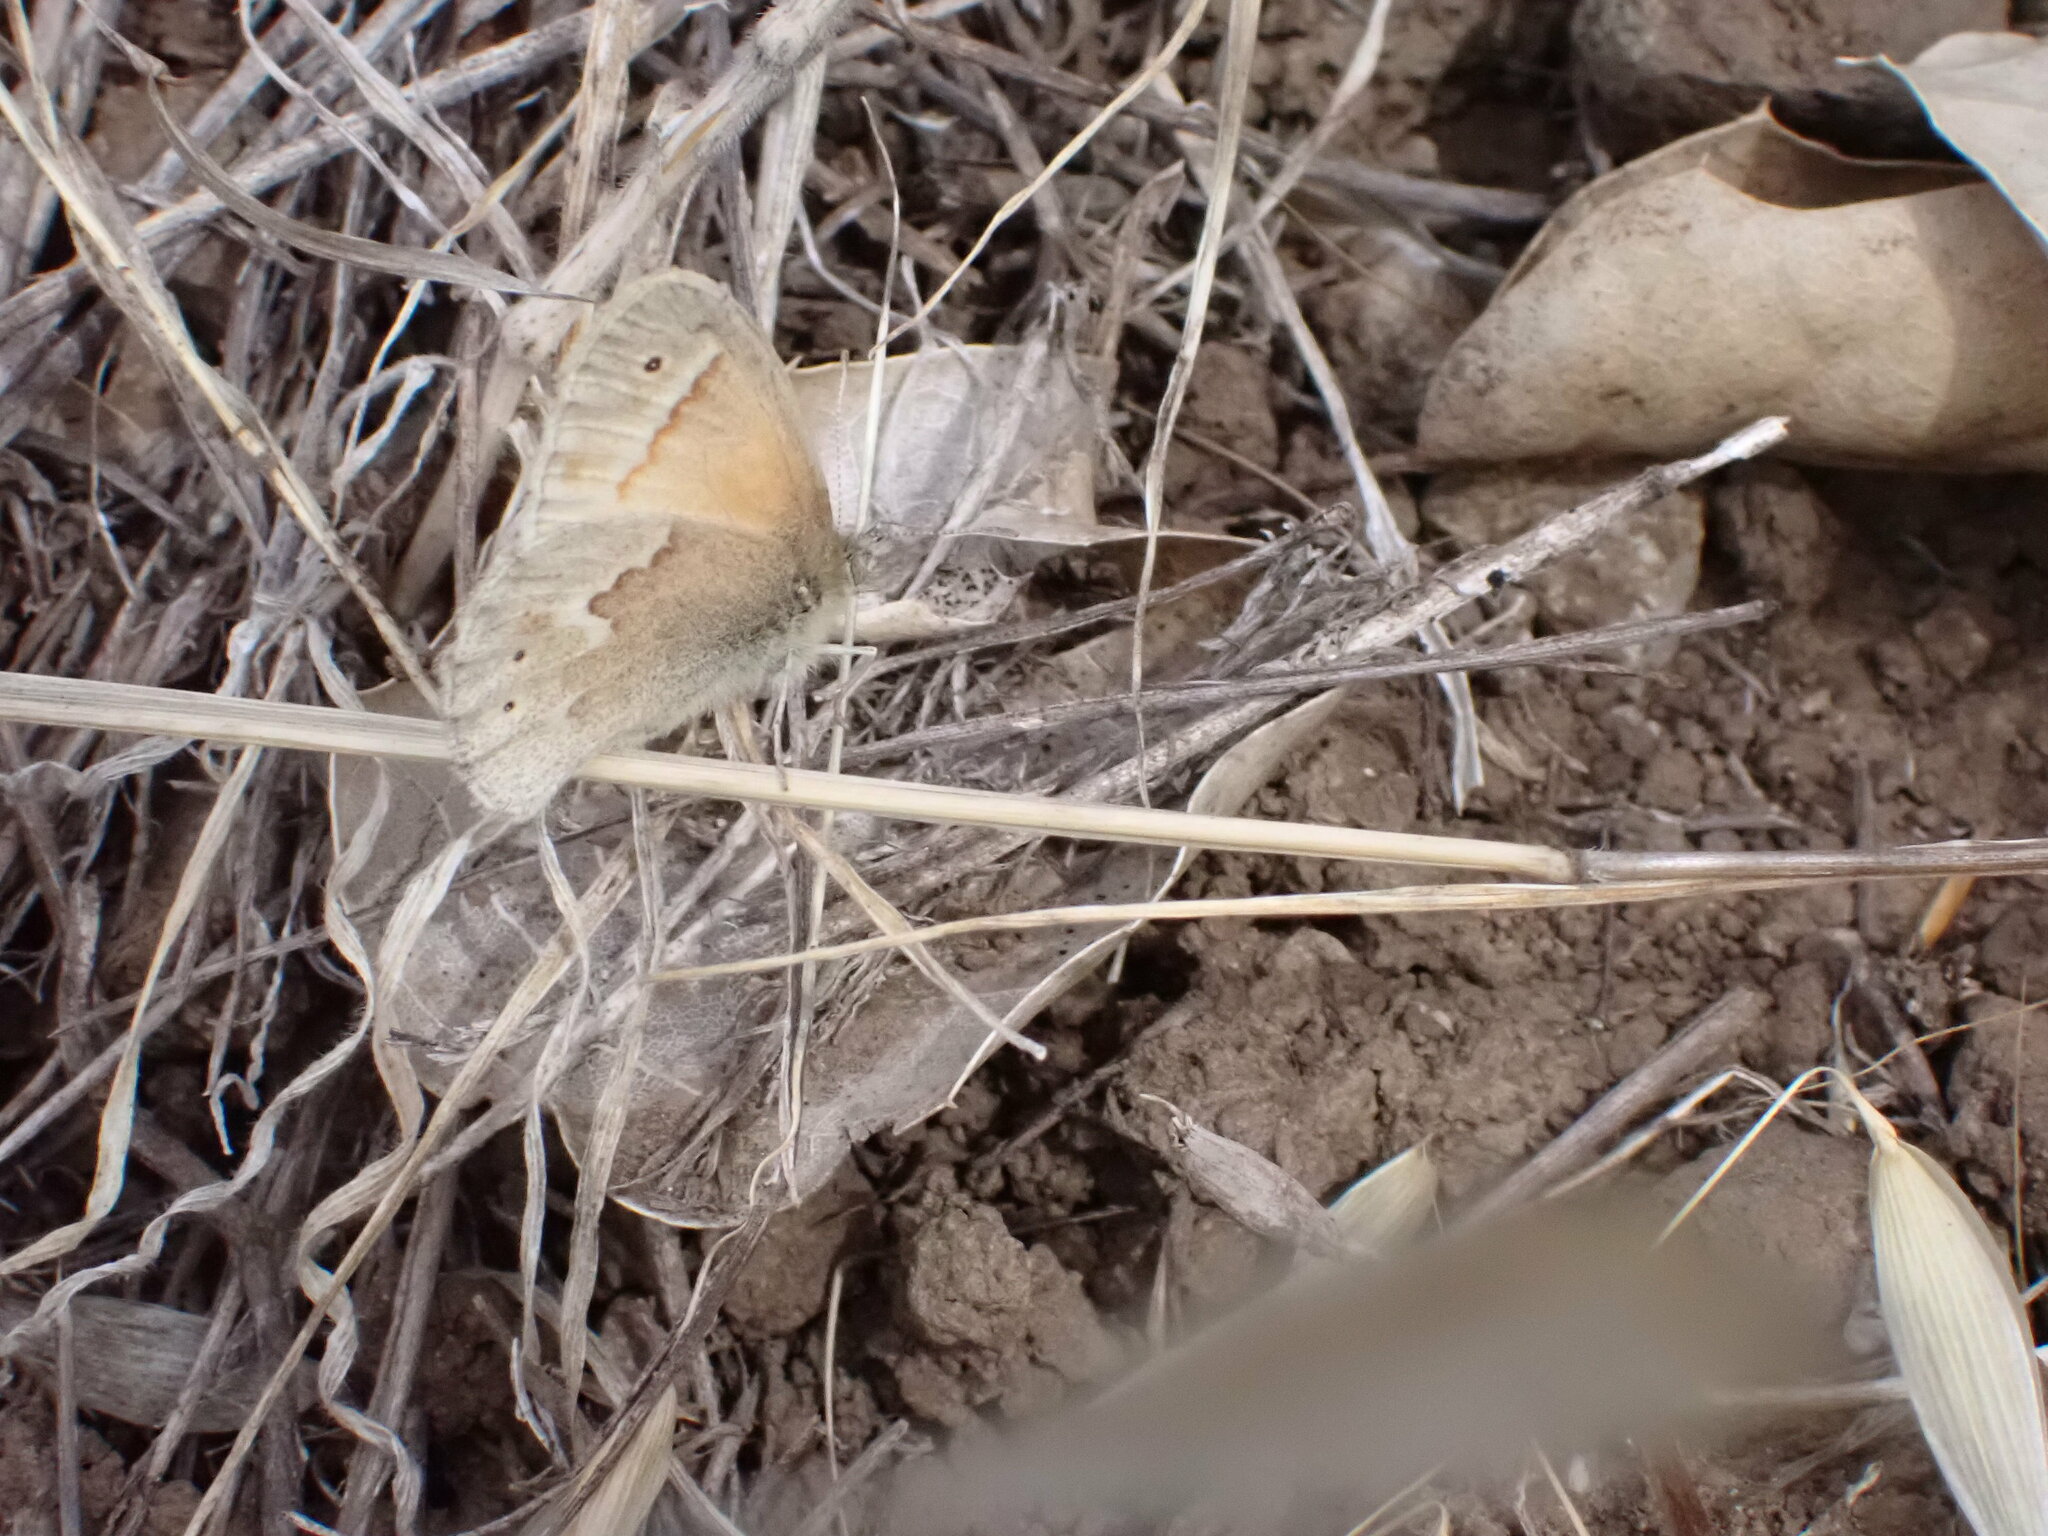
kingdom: Animalia
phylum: Arthropoda
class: Insecta
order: Lepidoptera
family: Nymphalidae
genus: Coenonympha
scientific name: Coenonympha california
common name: Common ringlet
